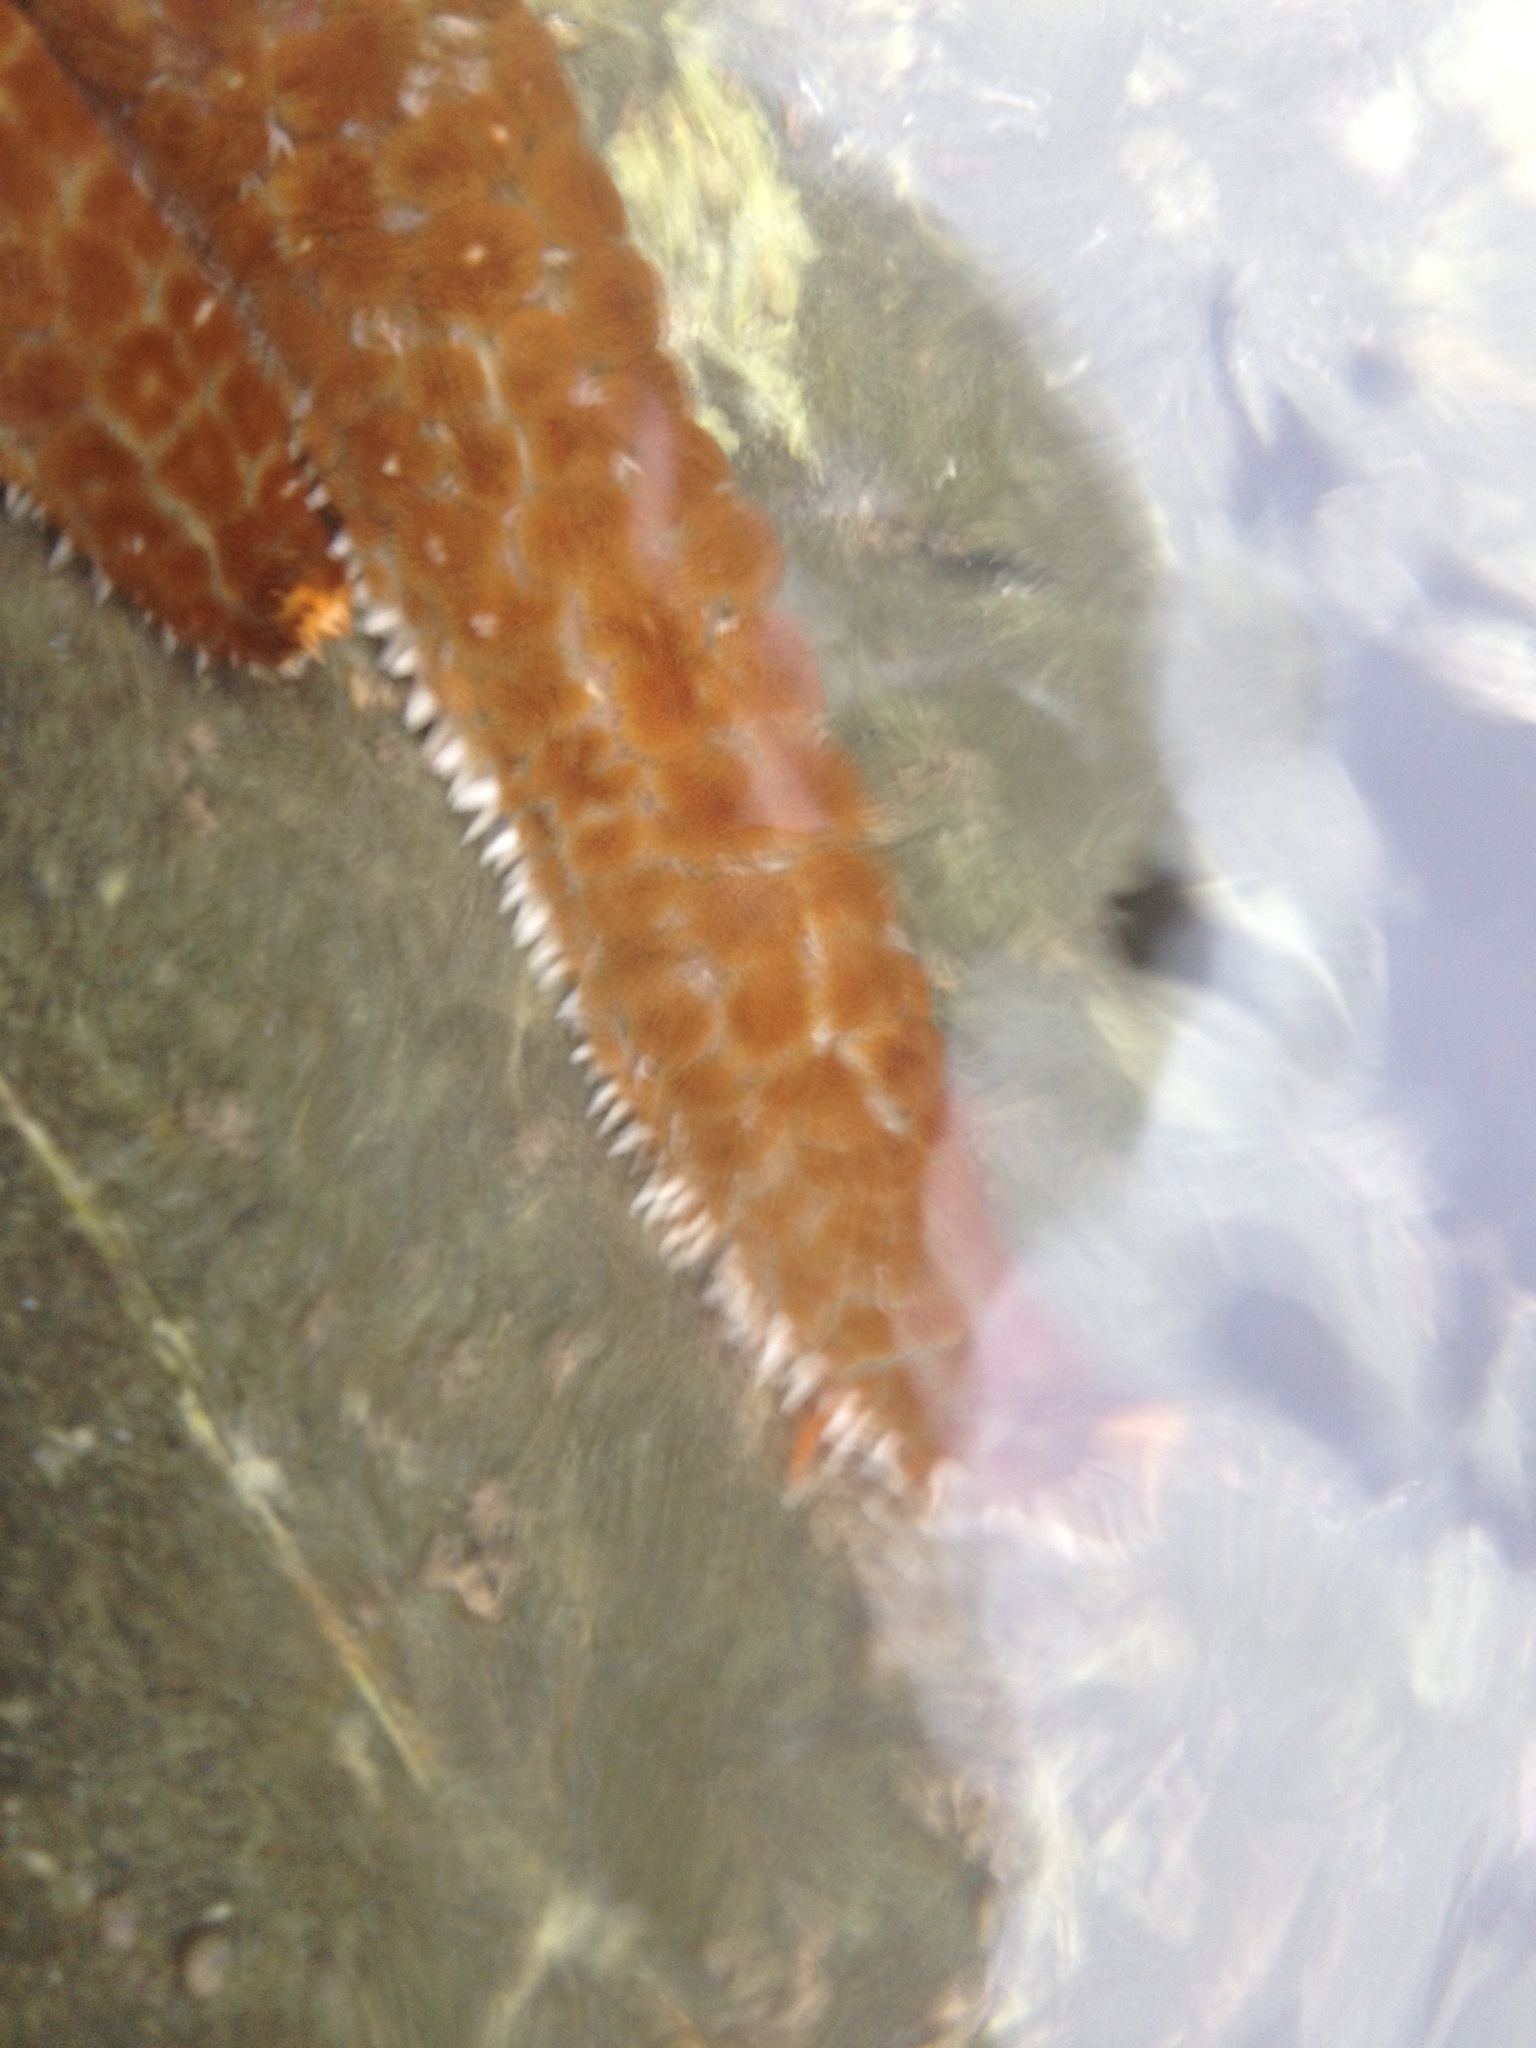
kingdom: Animalia
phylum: Echinodermata
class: Asteroidea
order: Forcipulatida
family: Asteriidae
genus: Astrostole
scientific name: Astrostole scabra
